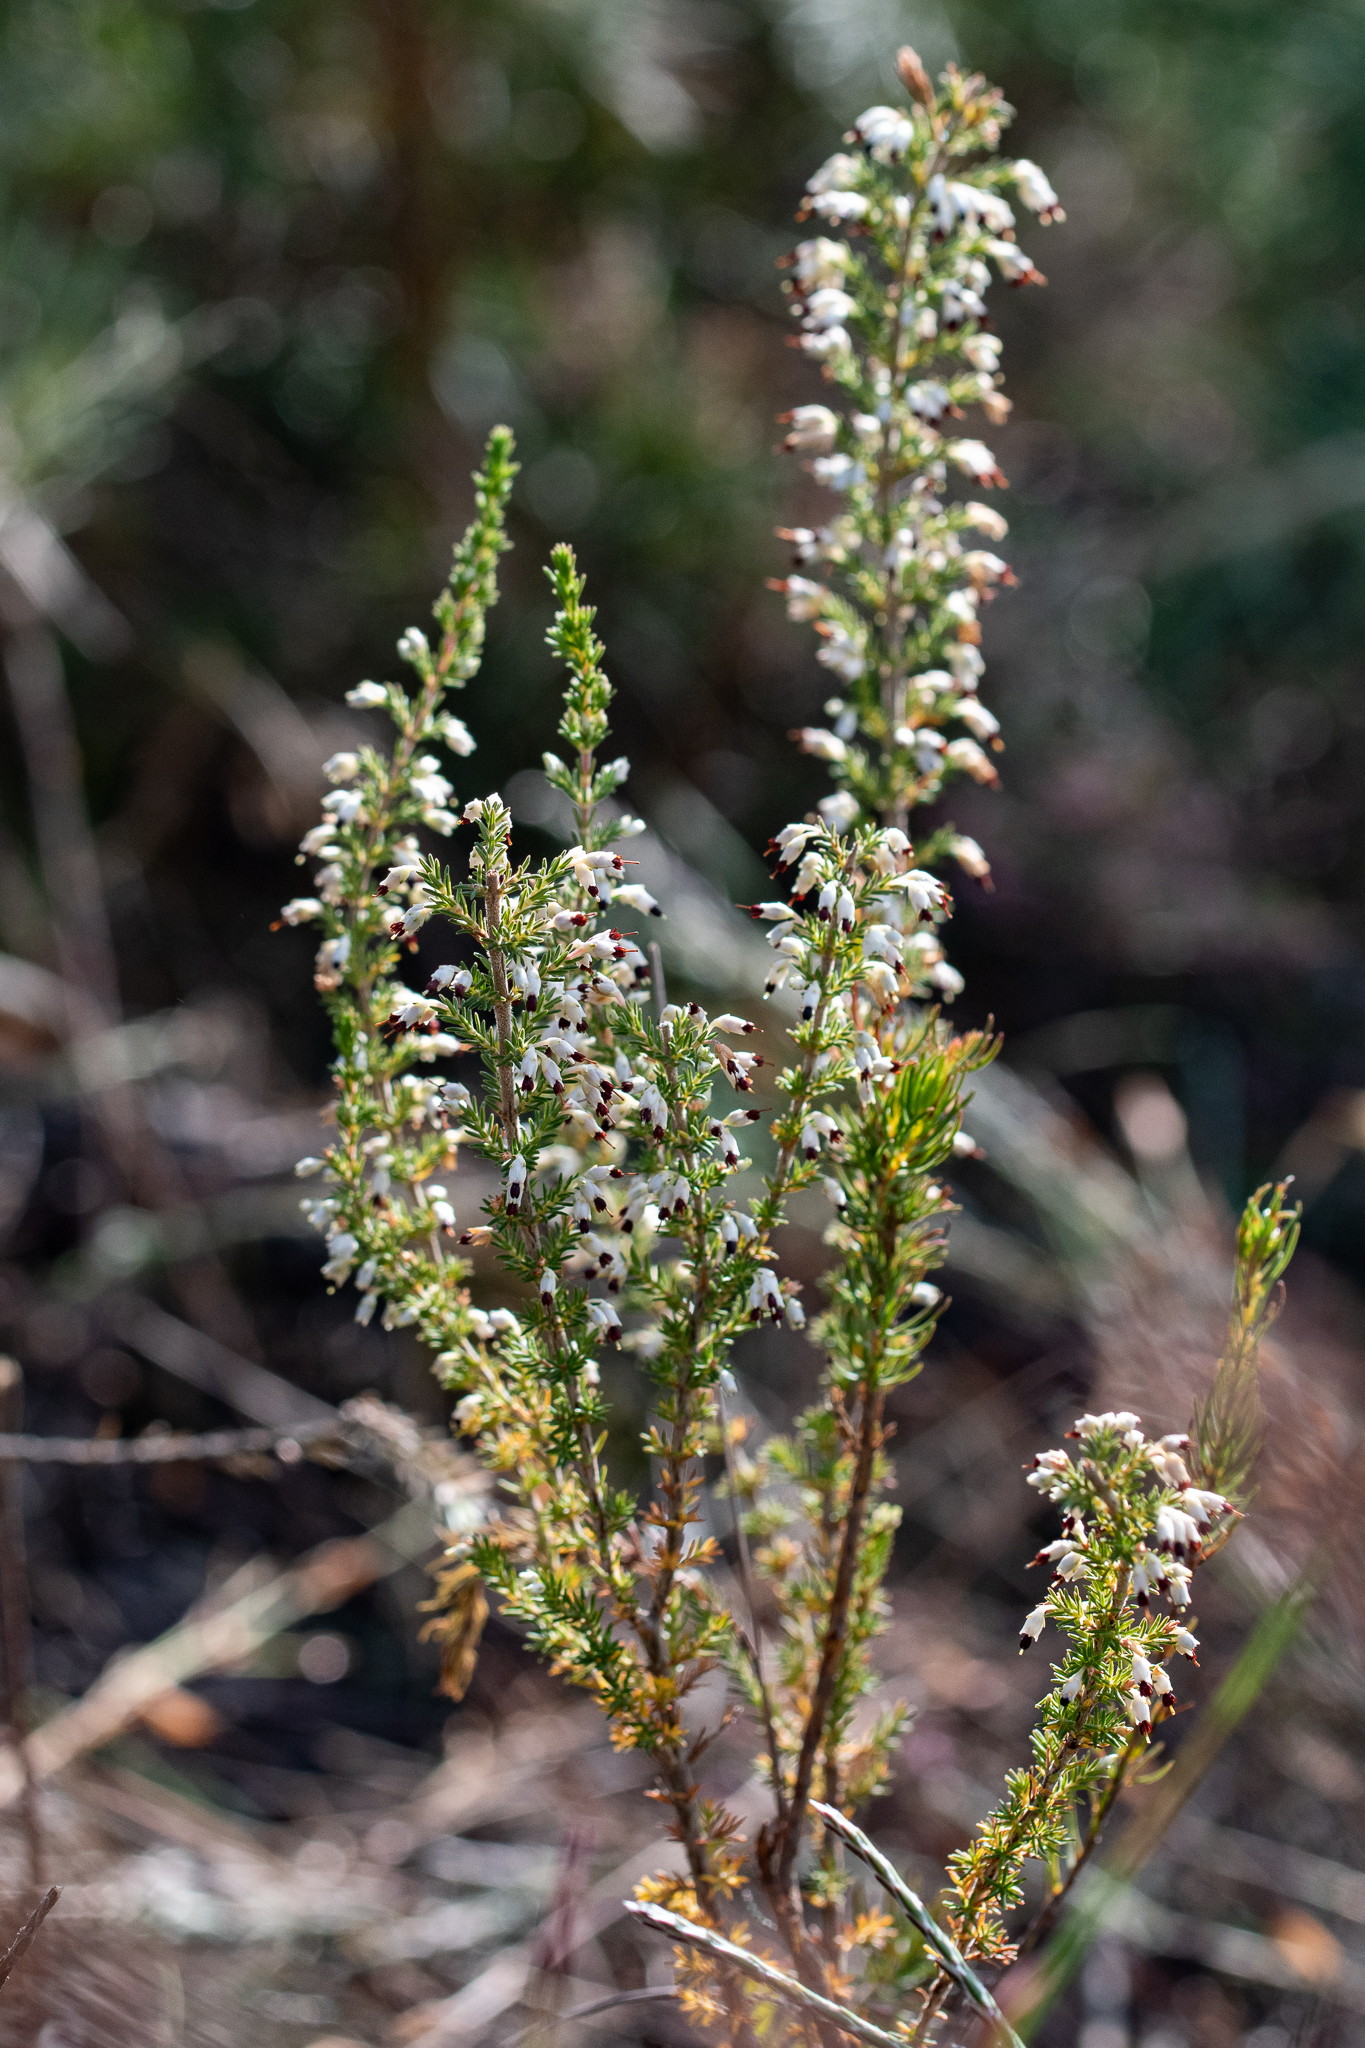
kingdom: Plantae
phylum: Tracheophyta
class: Magnoliopsida
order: Ericales
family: Ericaceae
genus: Erica
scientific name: Erica imbricata
